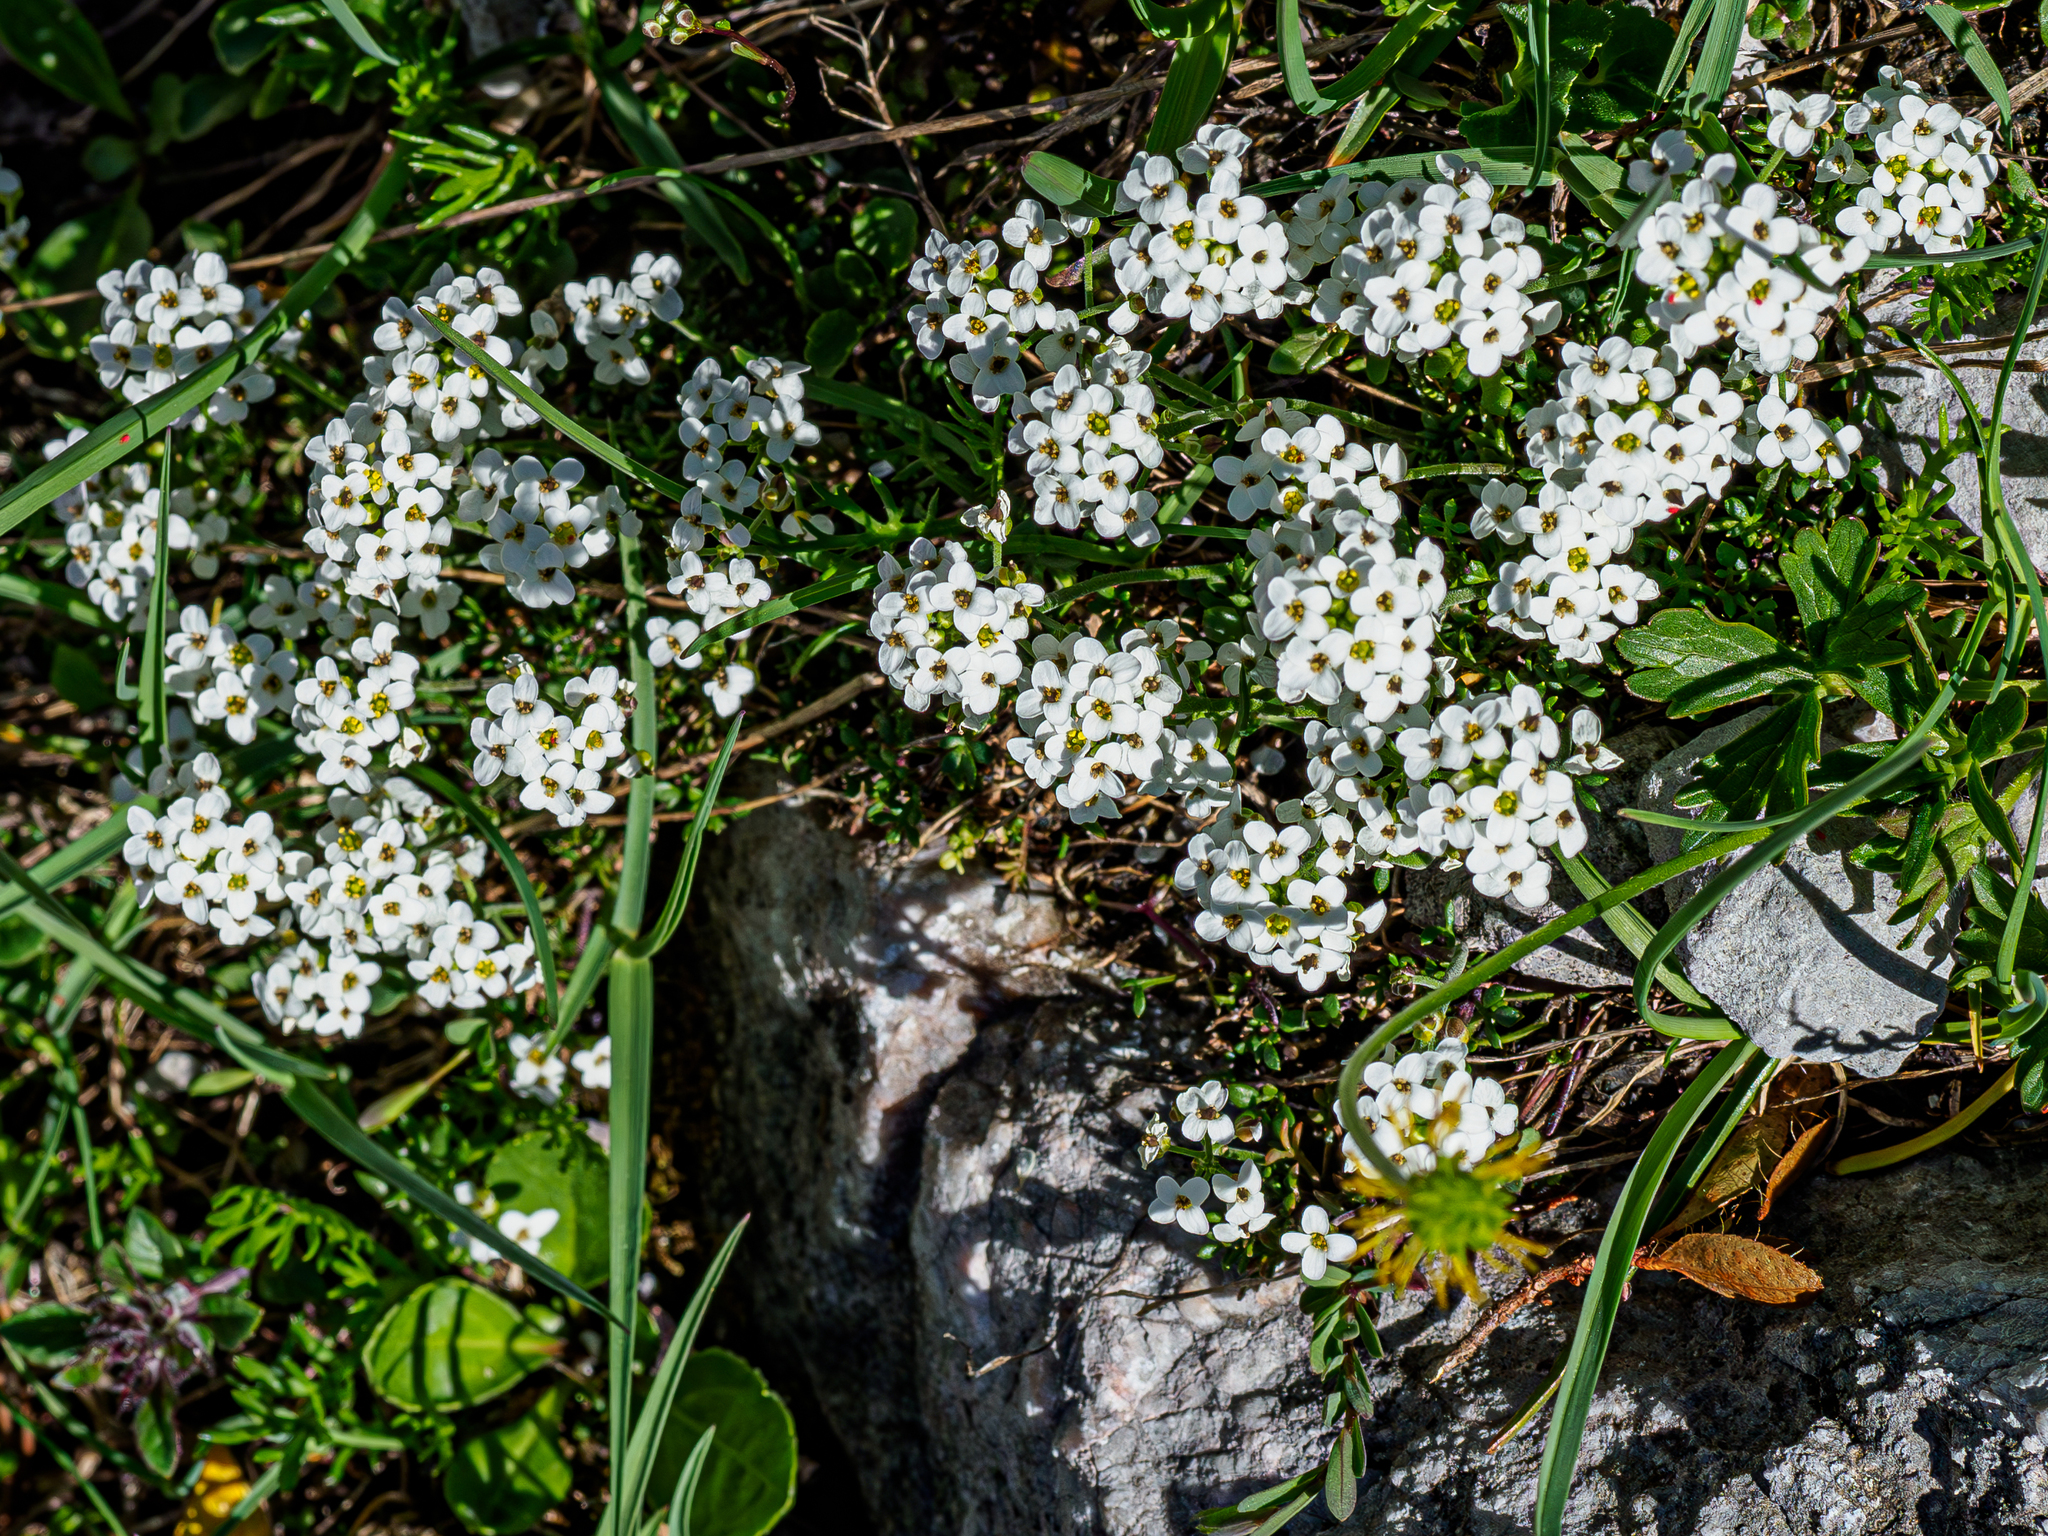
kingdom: Plantae
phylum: Tracheophyta
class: Magnoliopsida
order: Brassicales
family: Brassicaceae
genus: Hornungia
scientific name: Hornungia alpina
